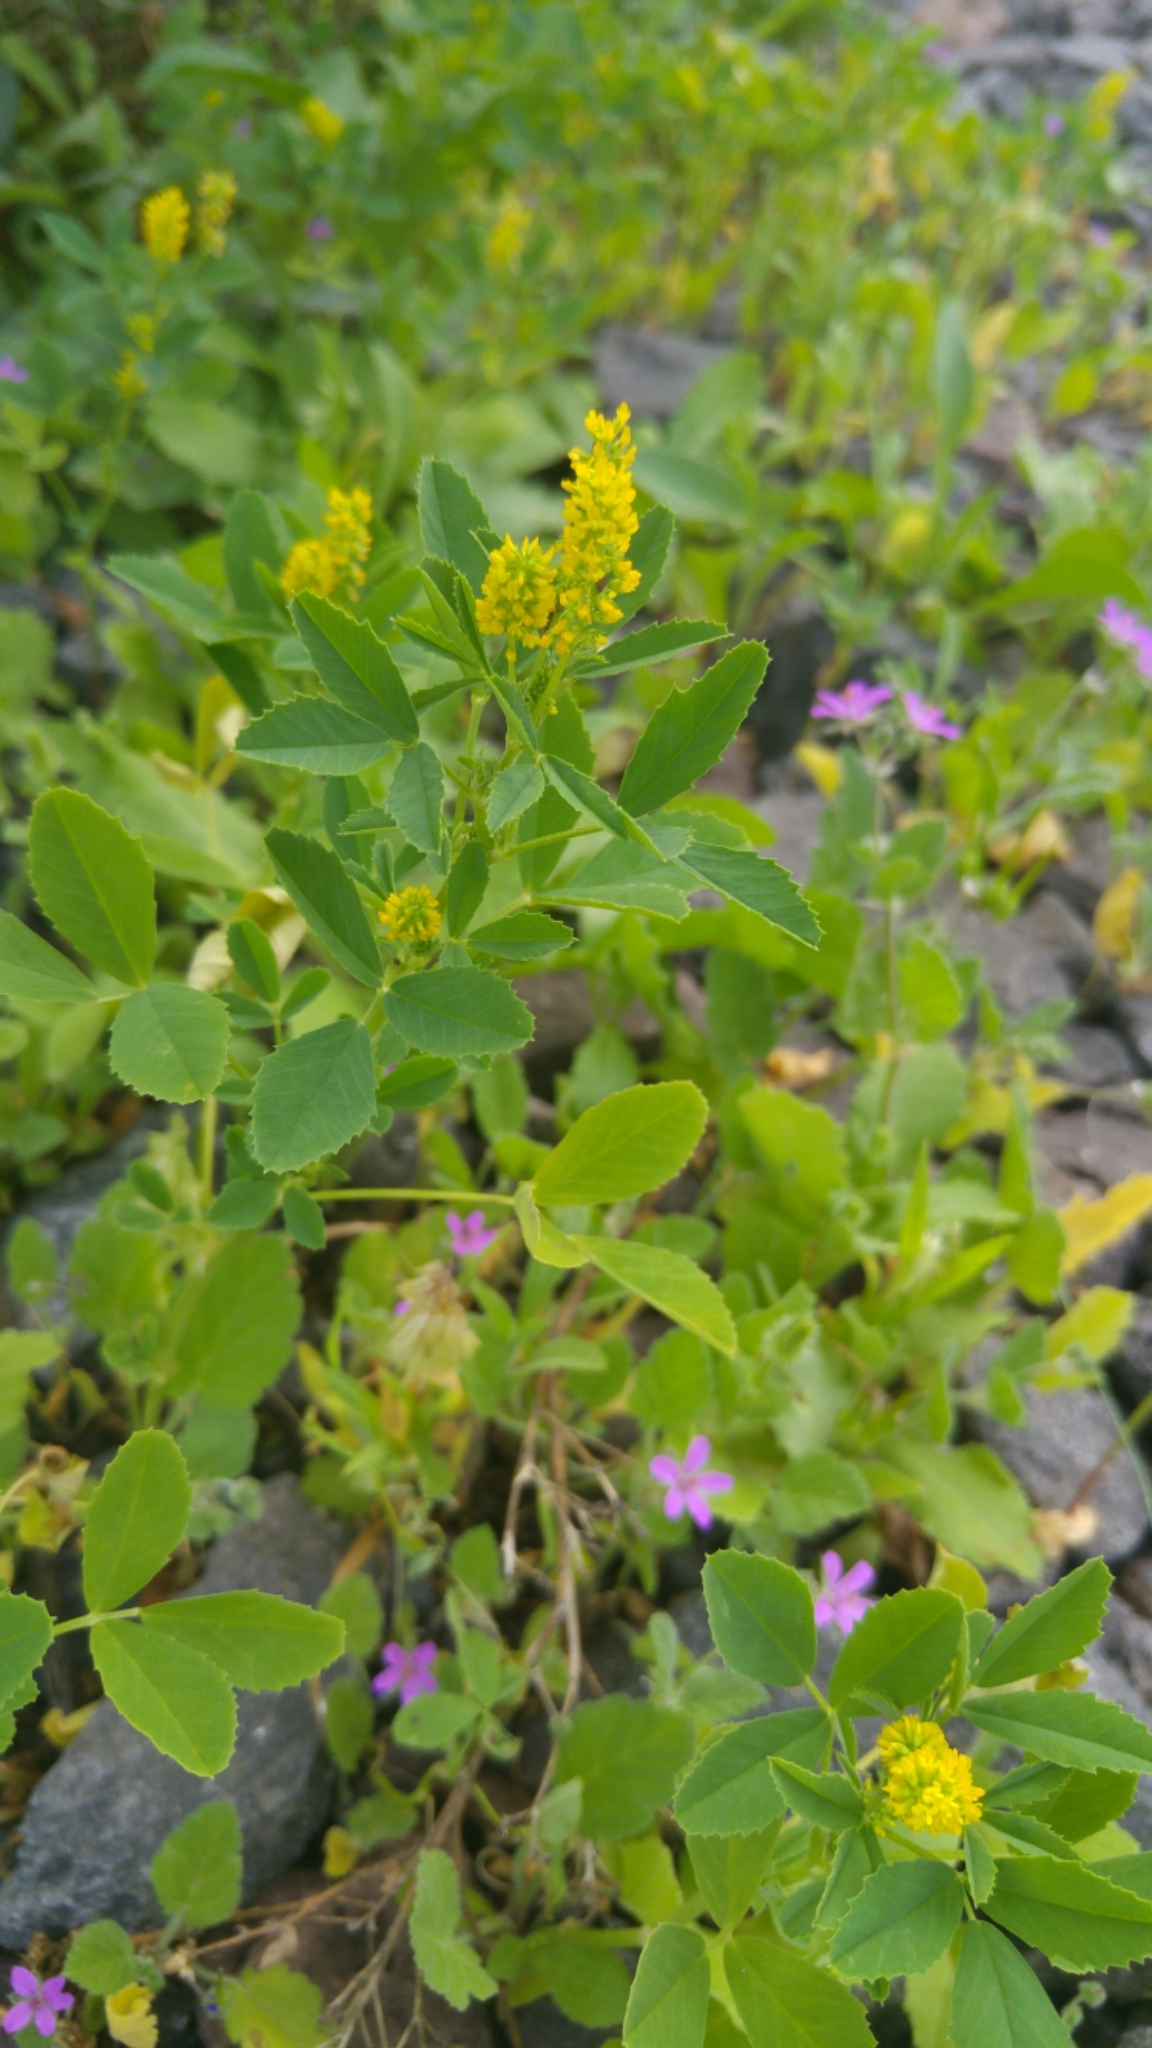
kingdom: Plantae
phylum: Tracheophyta
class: Magnoliopsida
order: Fabales
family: Fabaceae
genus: Melilotus
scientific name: Melilotus sulcatus
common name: Furrowed melilot
